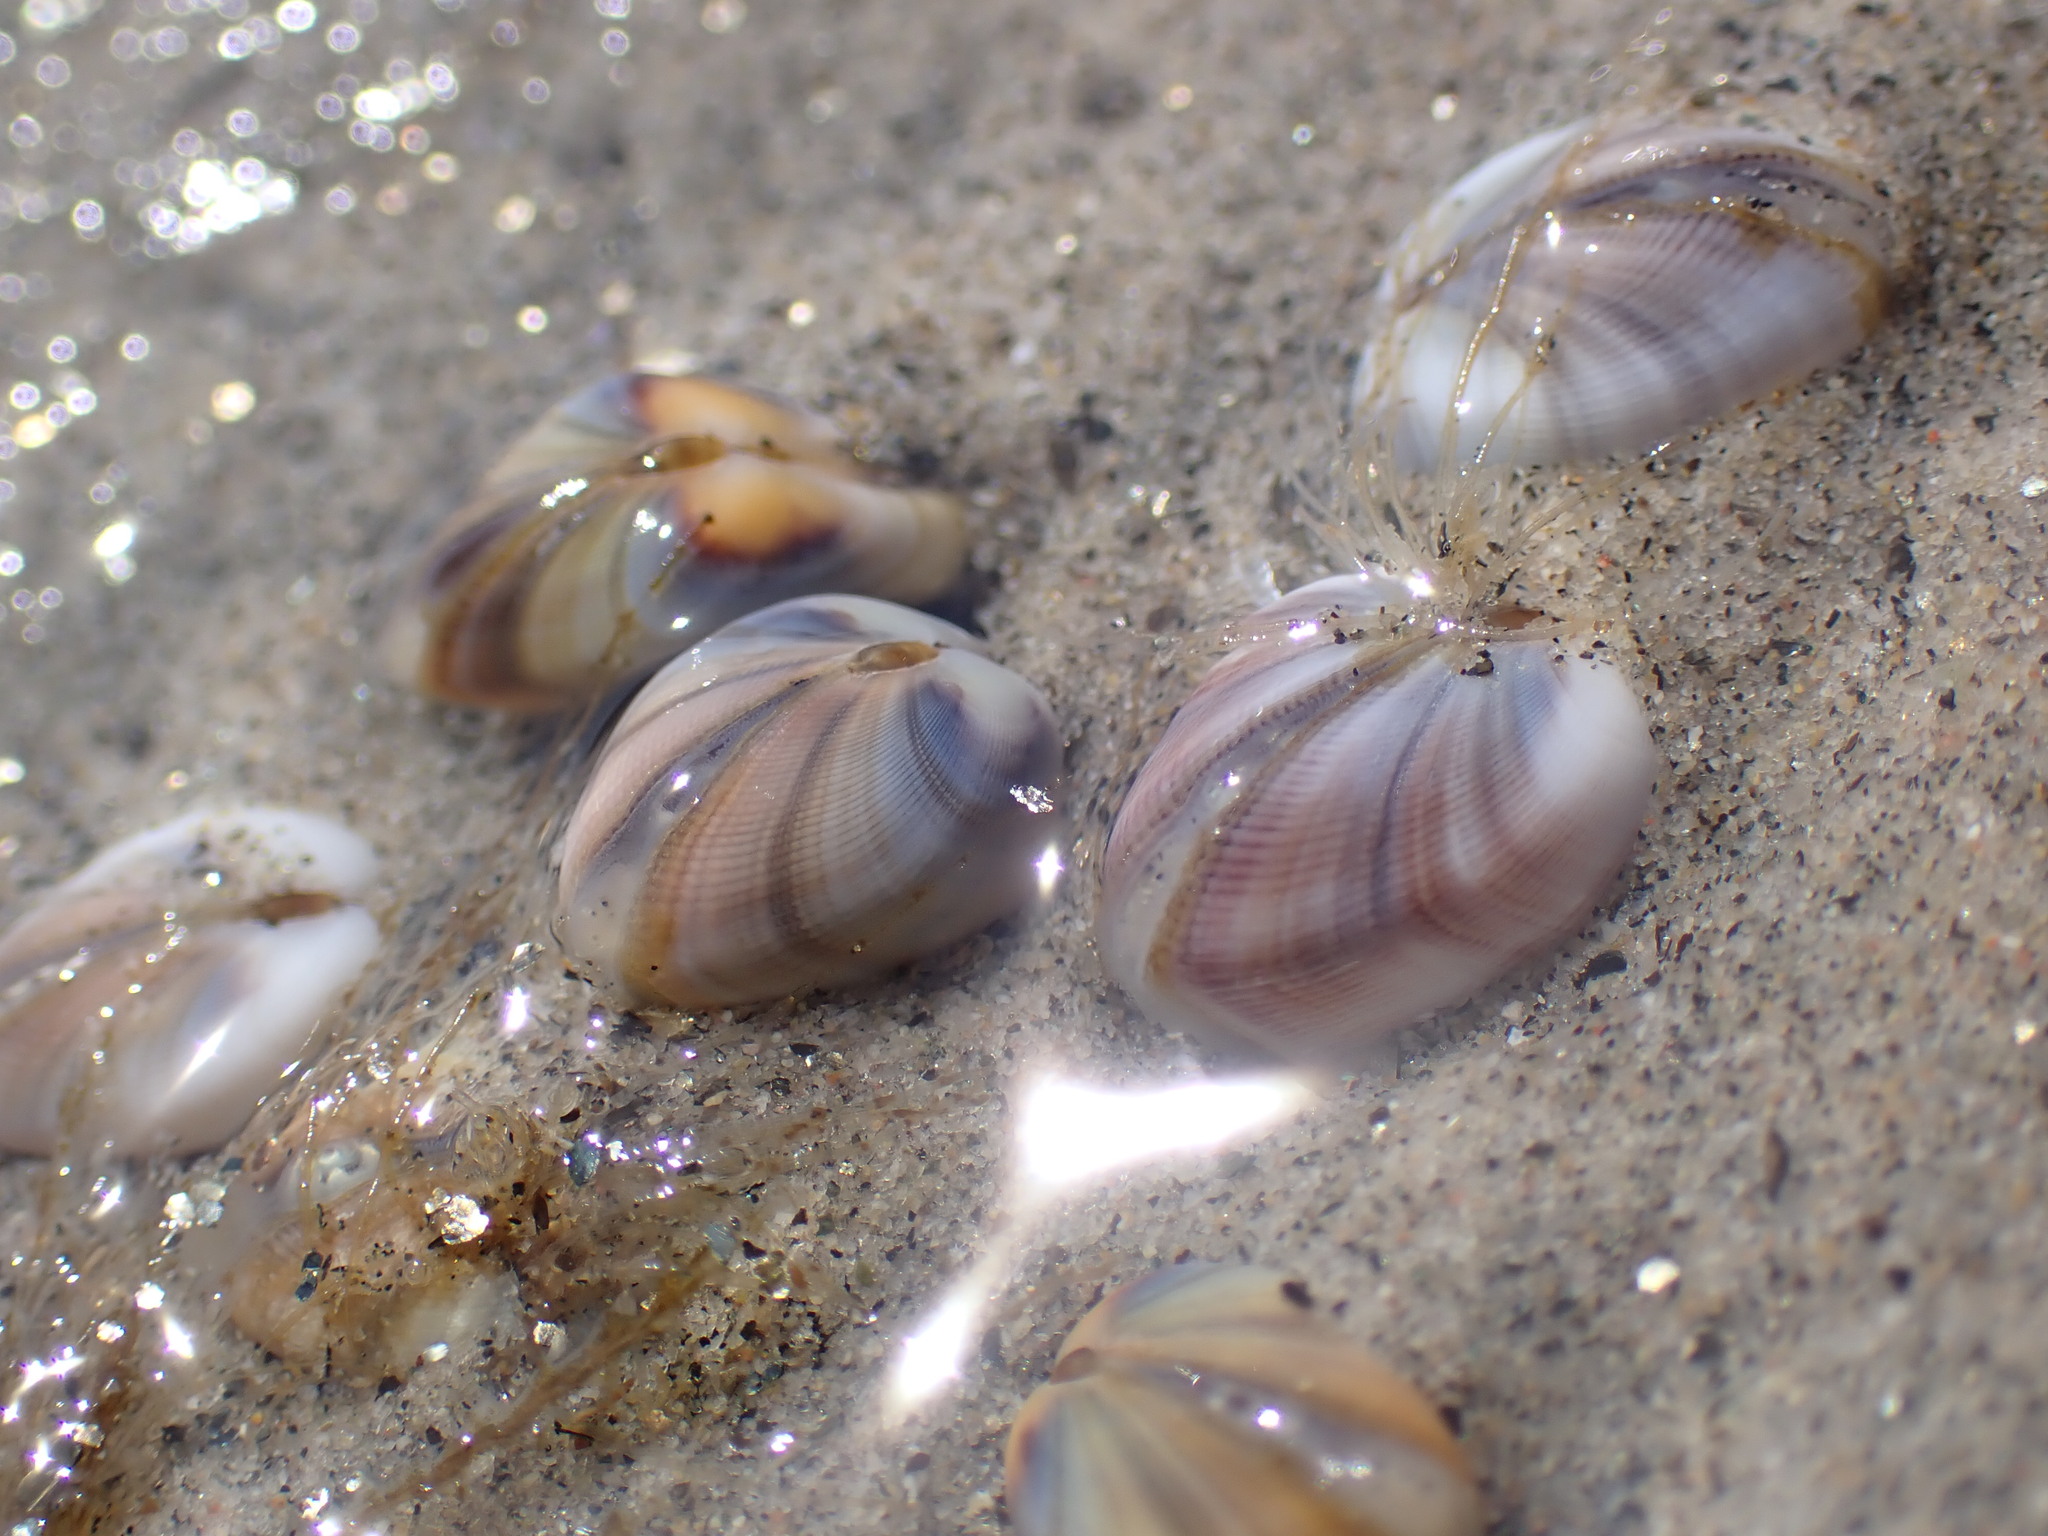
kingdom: Animalia
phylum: Mollusca
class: Bivalvia
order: Cardiida
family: Donacidae
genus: Donax
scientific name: Donax gouldii
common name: Gould beanclam
